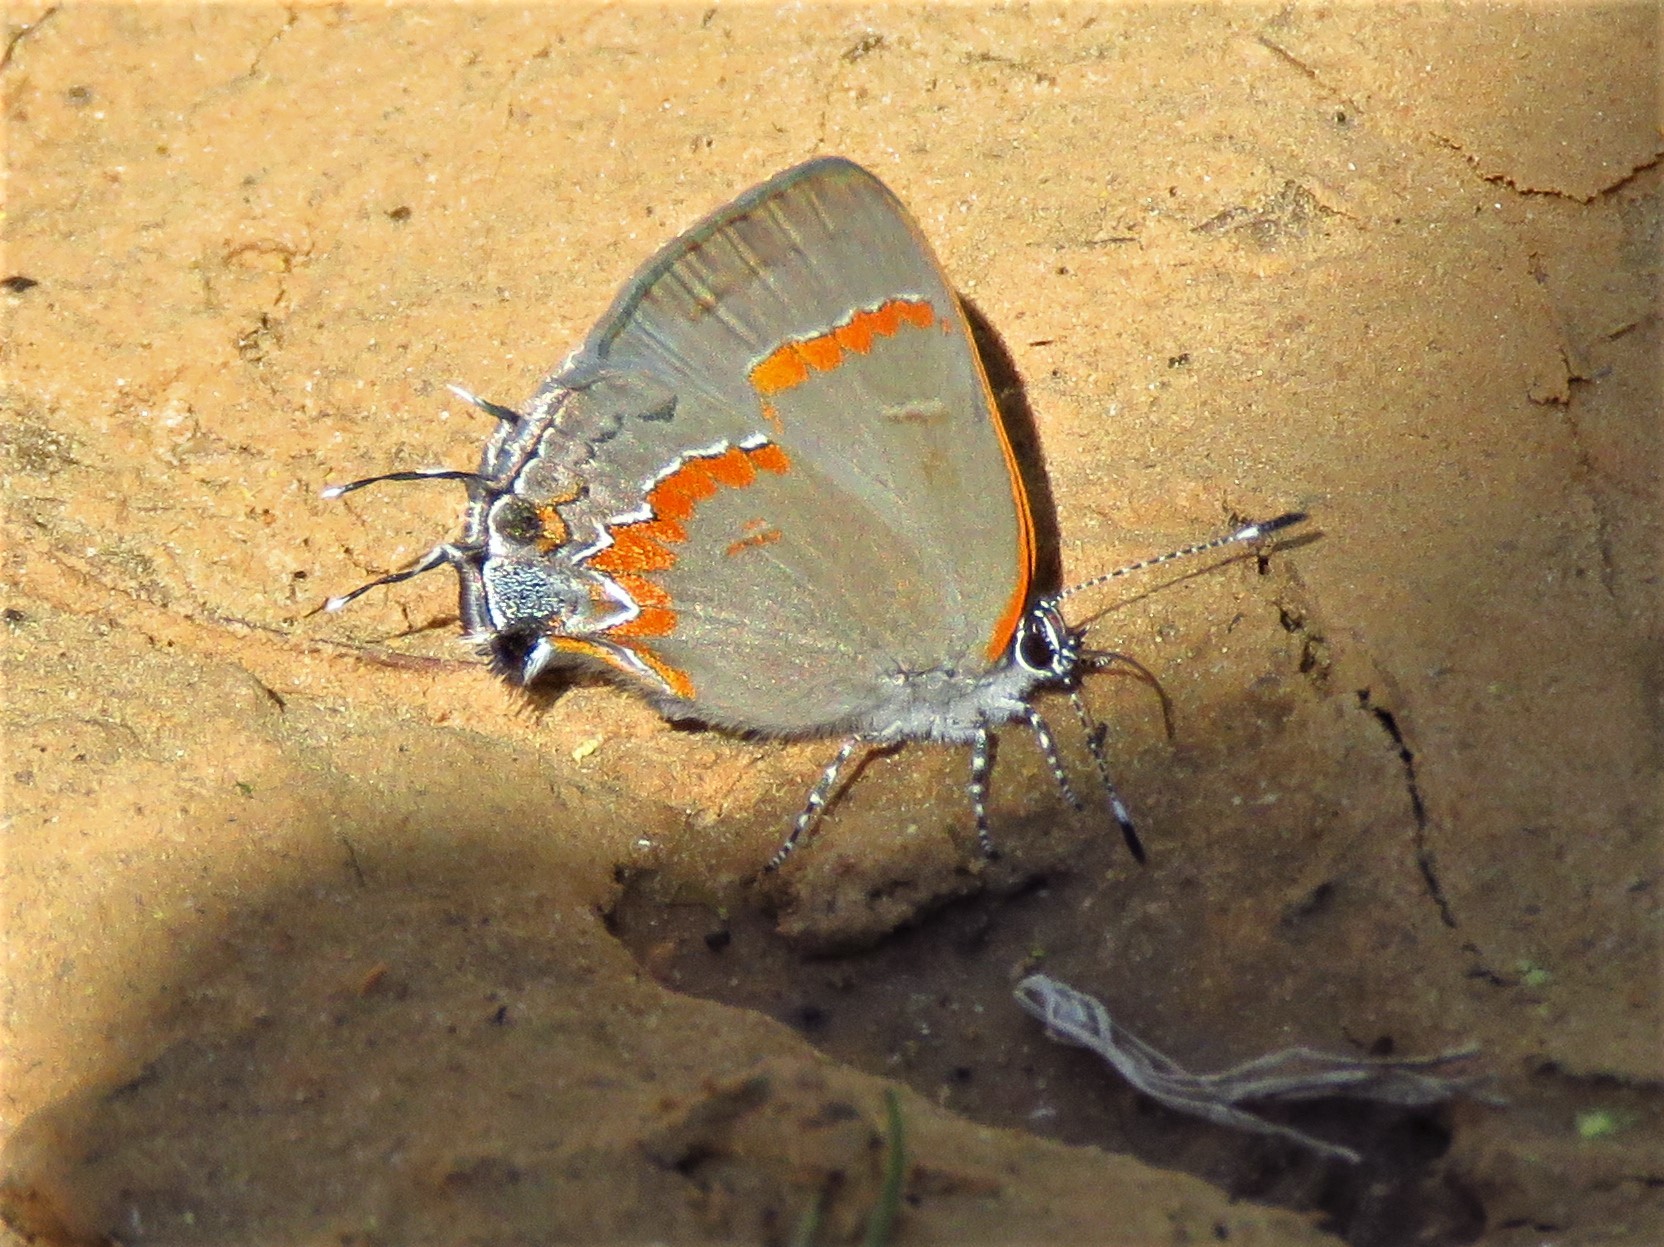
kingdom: Animalia
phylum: Arthropoda
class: Insecta
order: Lepidoptera
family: Lycaenidae
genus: Calycopis
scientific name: Calycopis cecrops
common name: Red-banded hairstreak
